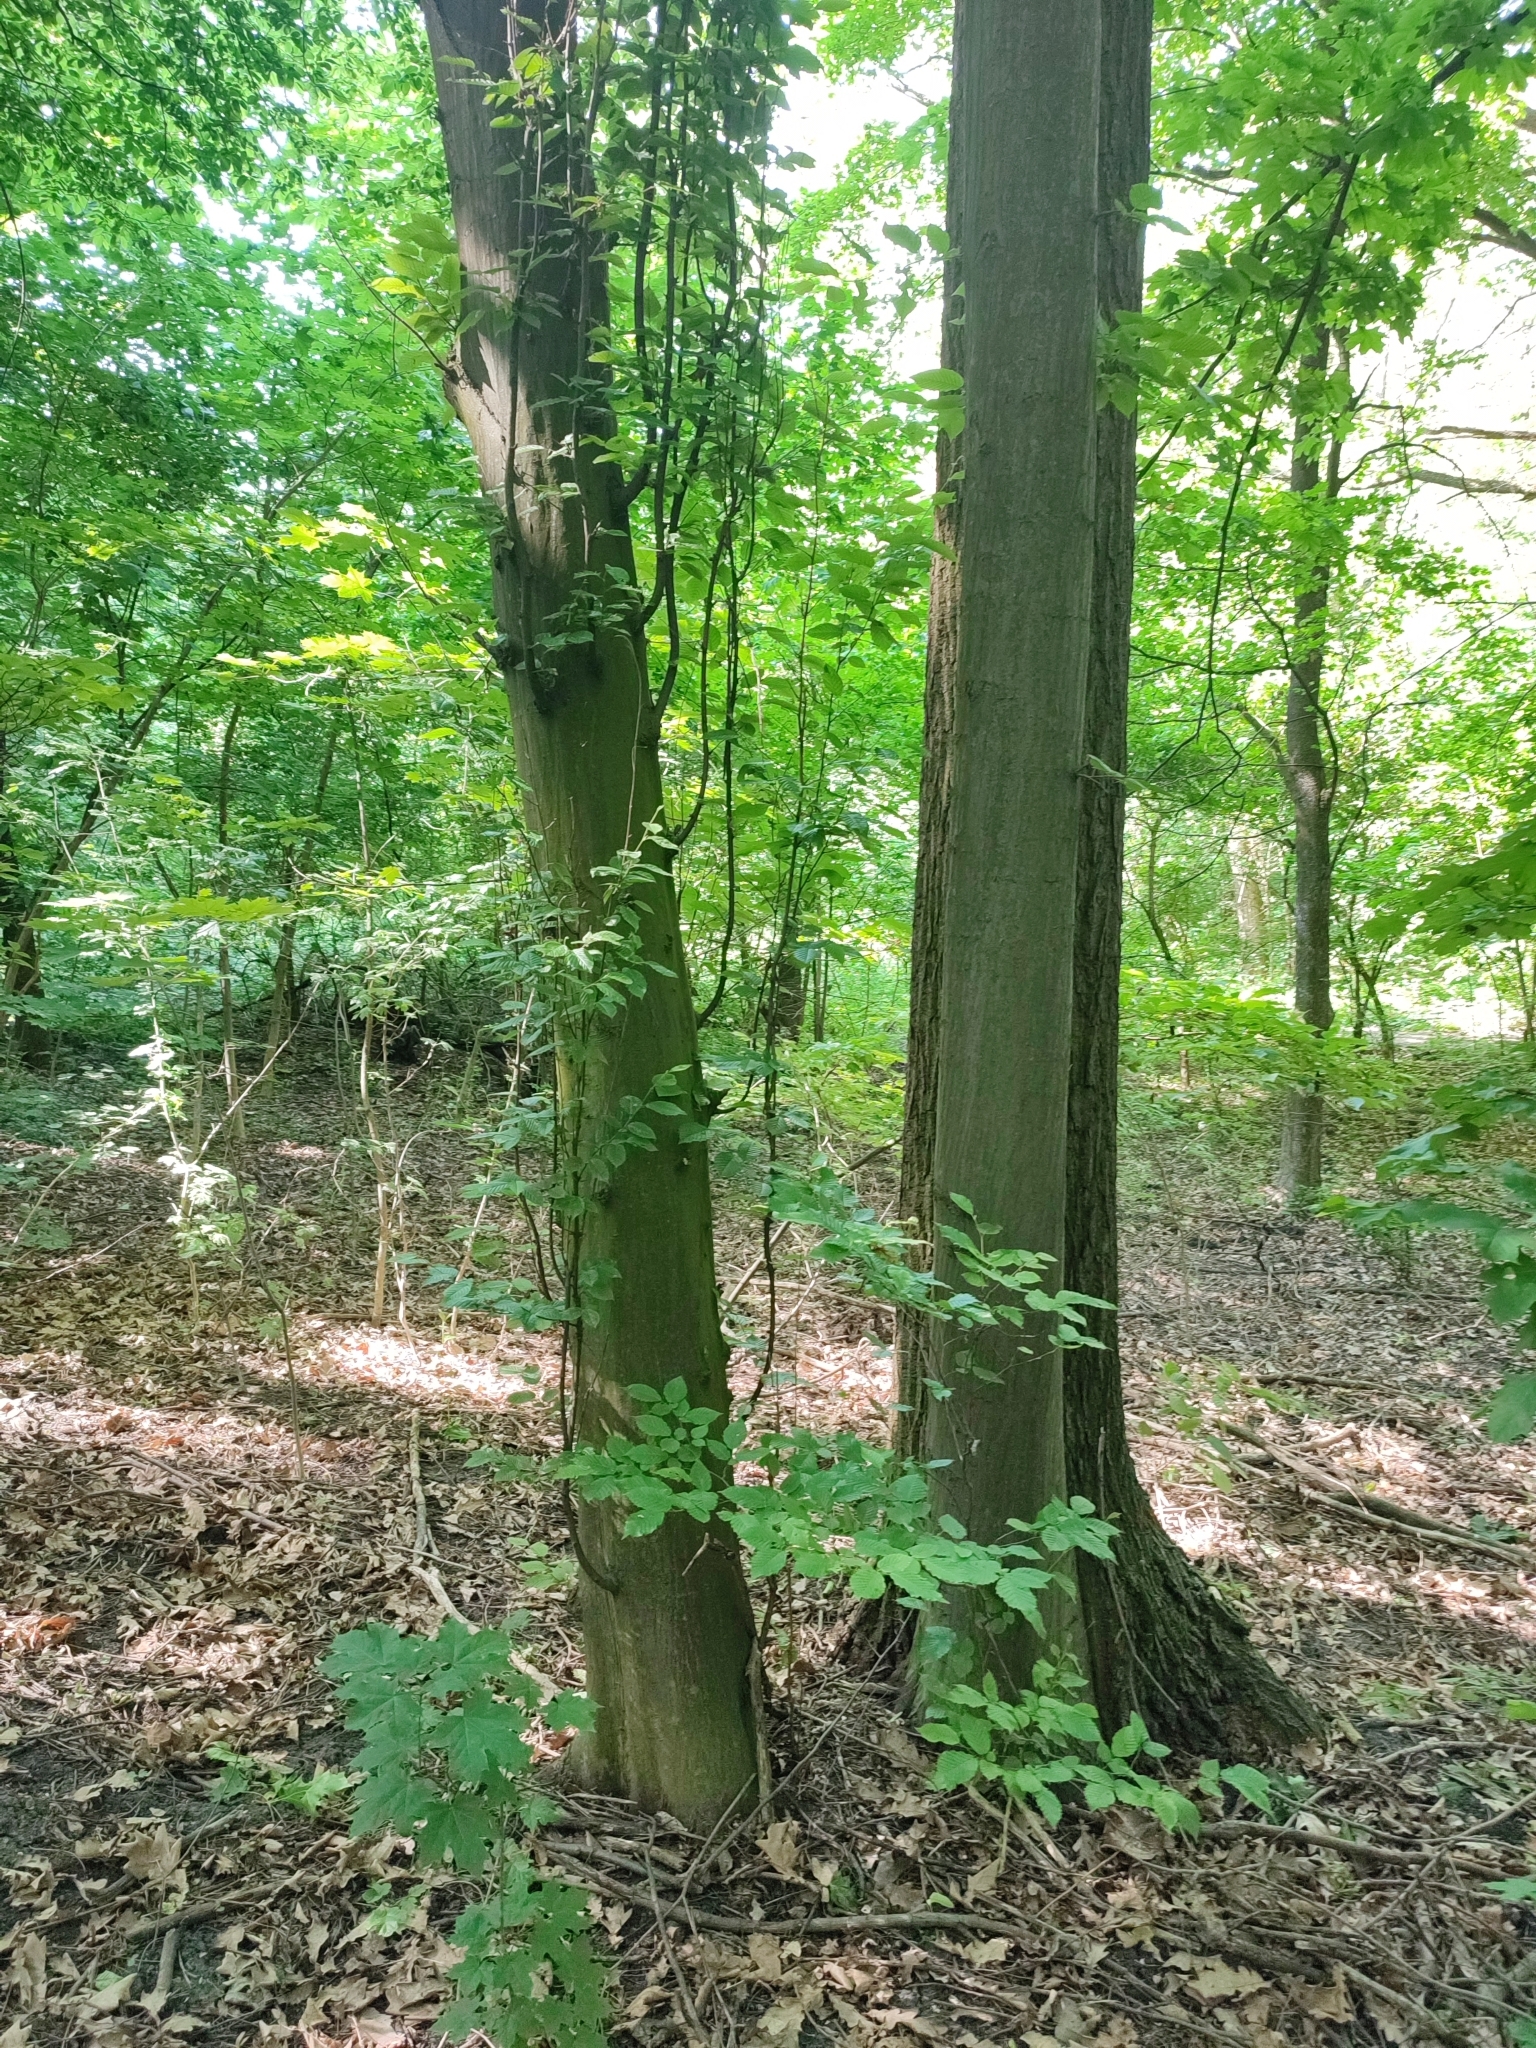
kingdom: Plantae
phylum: Tracheophyta
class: Magnoliopsida
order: Fagales
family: Betulaceae
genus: Carpinus
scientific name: Carpinus betulus
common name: Hornbeam
